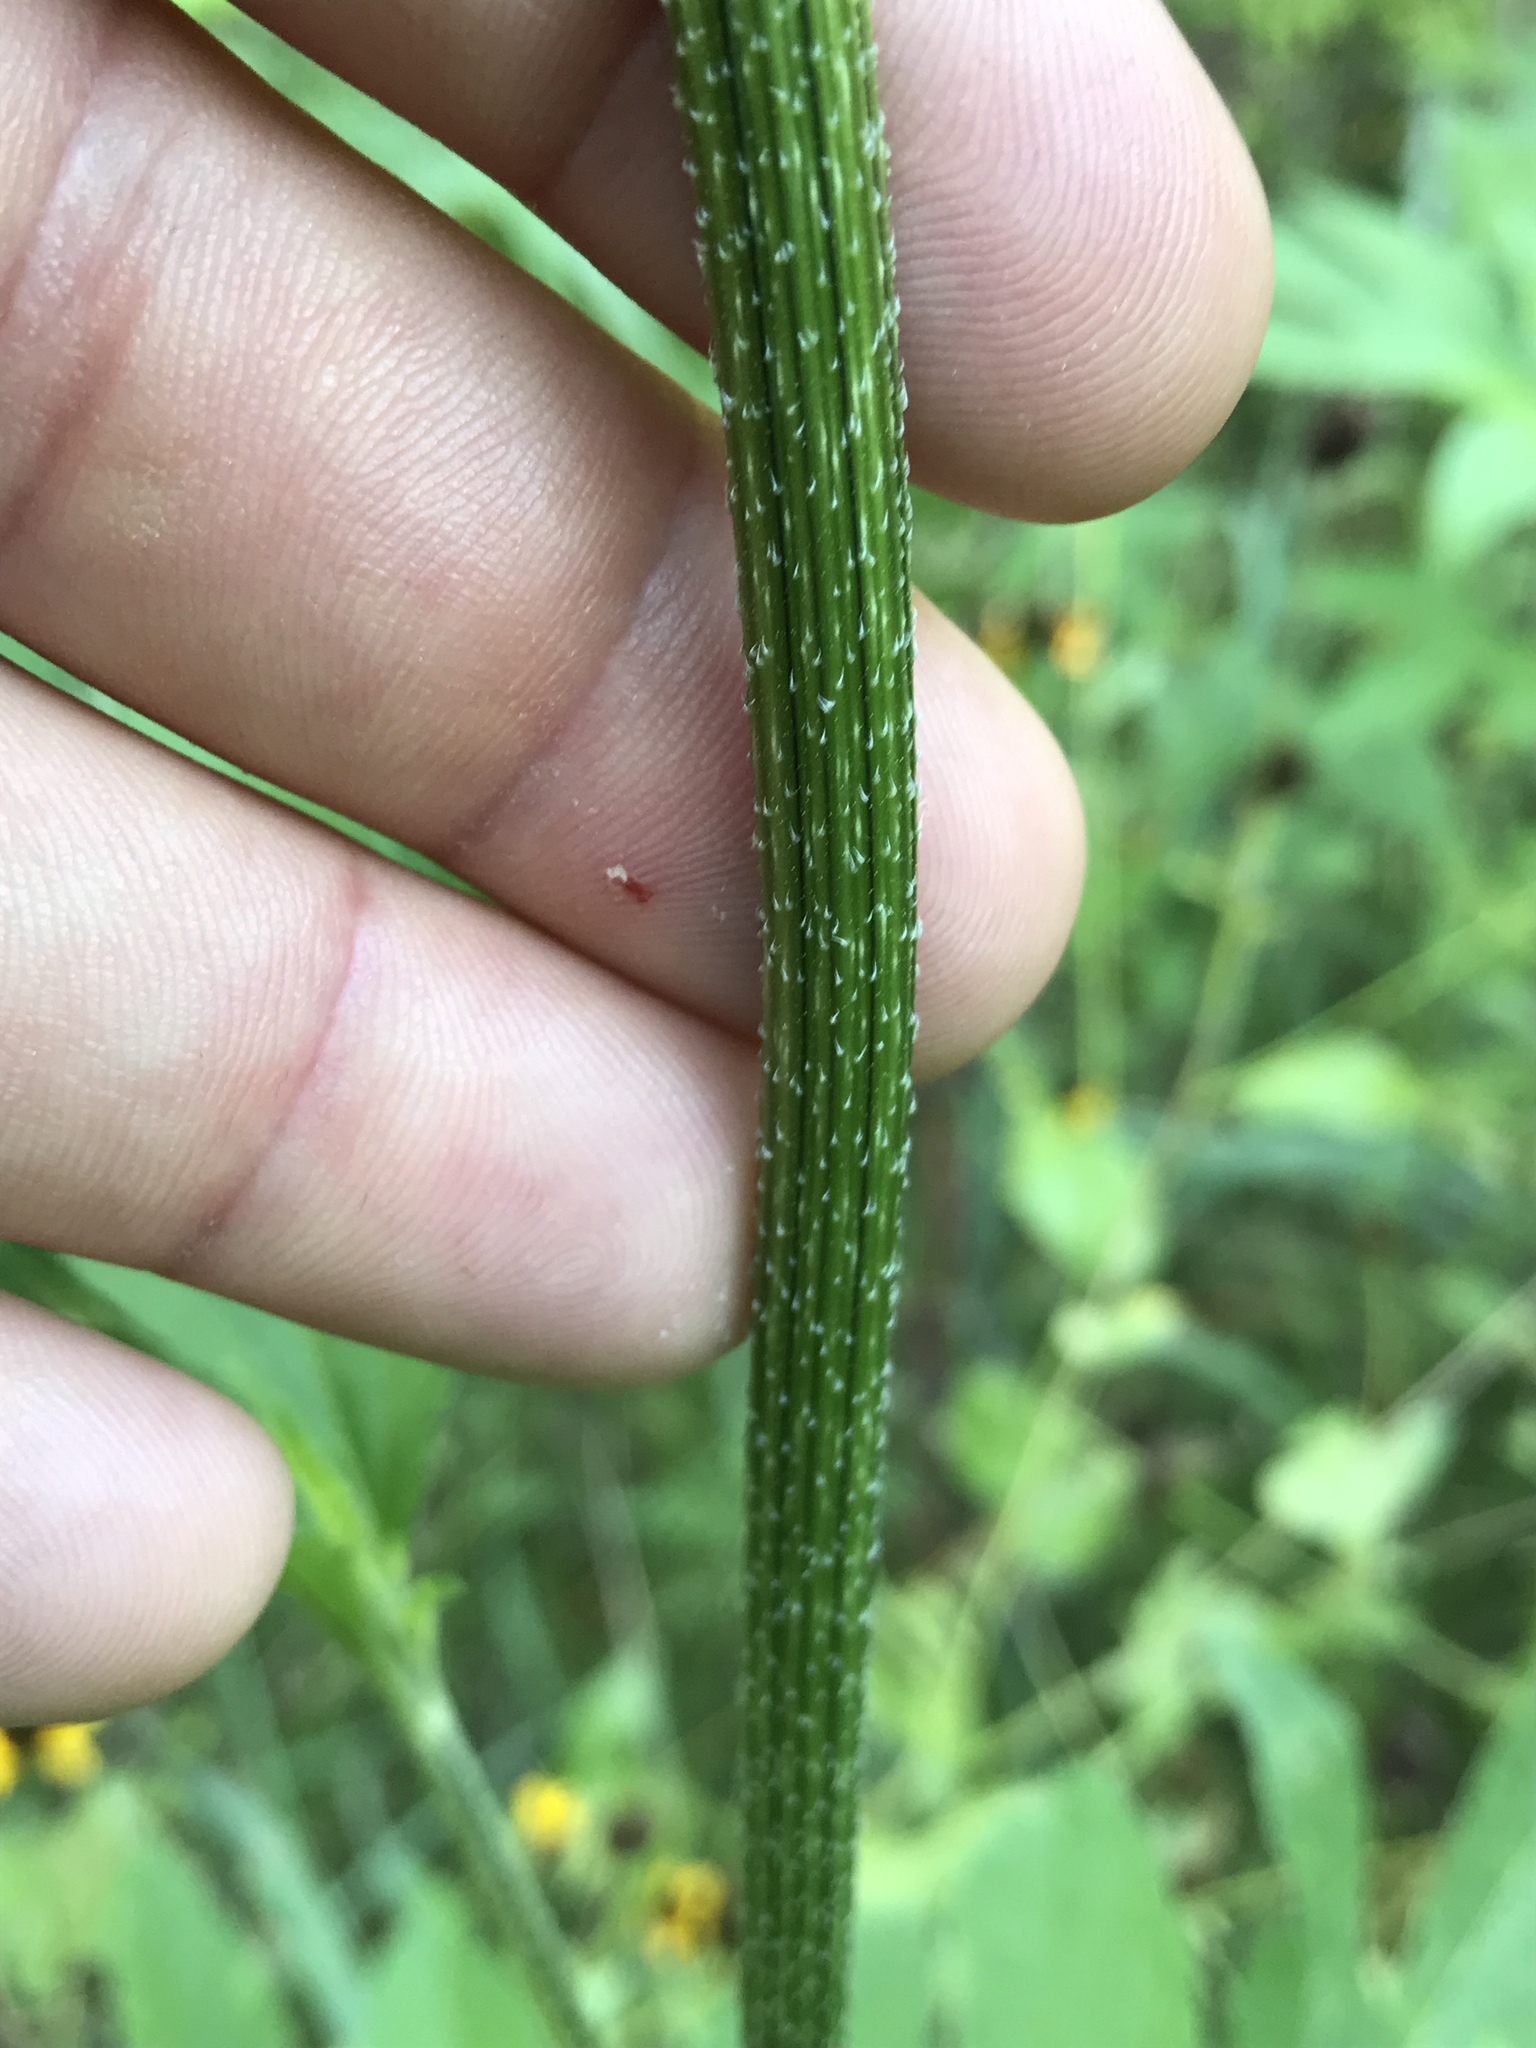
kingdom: Plantae
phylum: Tracheophyta
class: Magnoliopsida
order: Asterales
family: Asteraceae
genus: Ambrosia
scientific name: Ambrosia trifida
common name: Giant ragweed
